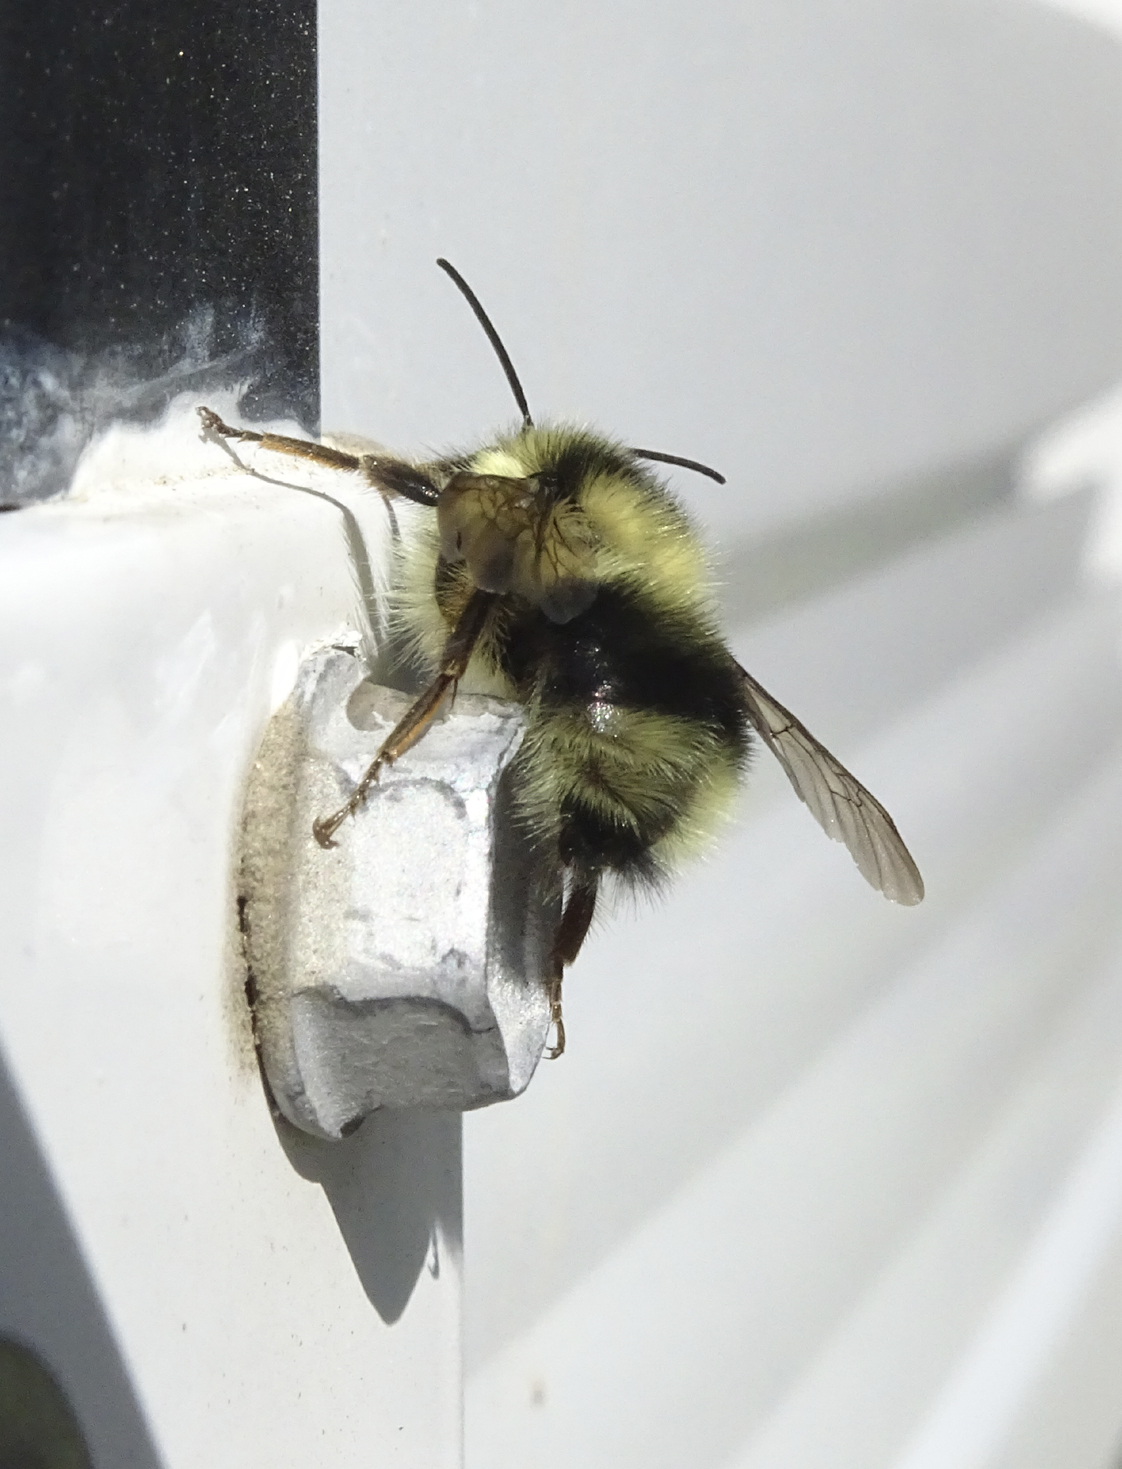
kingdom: Animalia
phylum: Arthropoda
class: Insecta
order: Hymenoptera
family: Apidae
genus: Bombus
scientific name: Bombus melanopygus
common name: Black tail bumble bee
